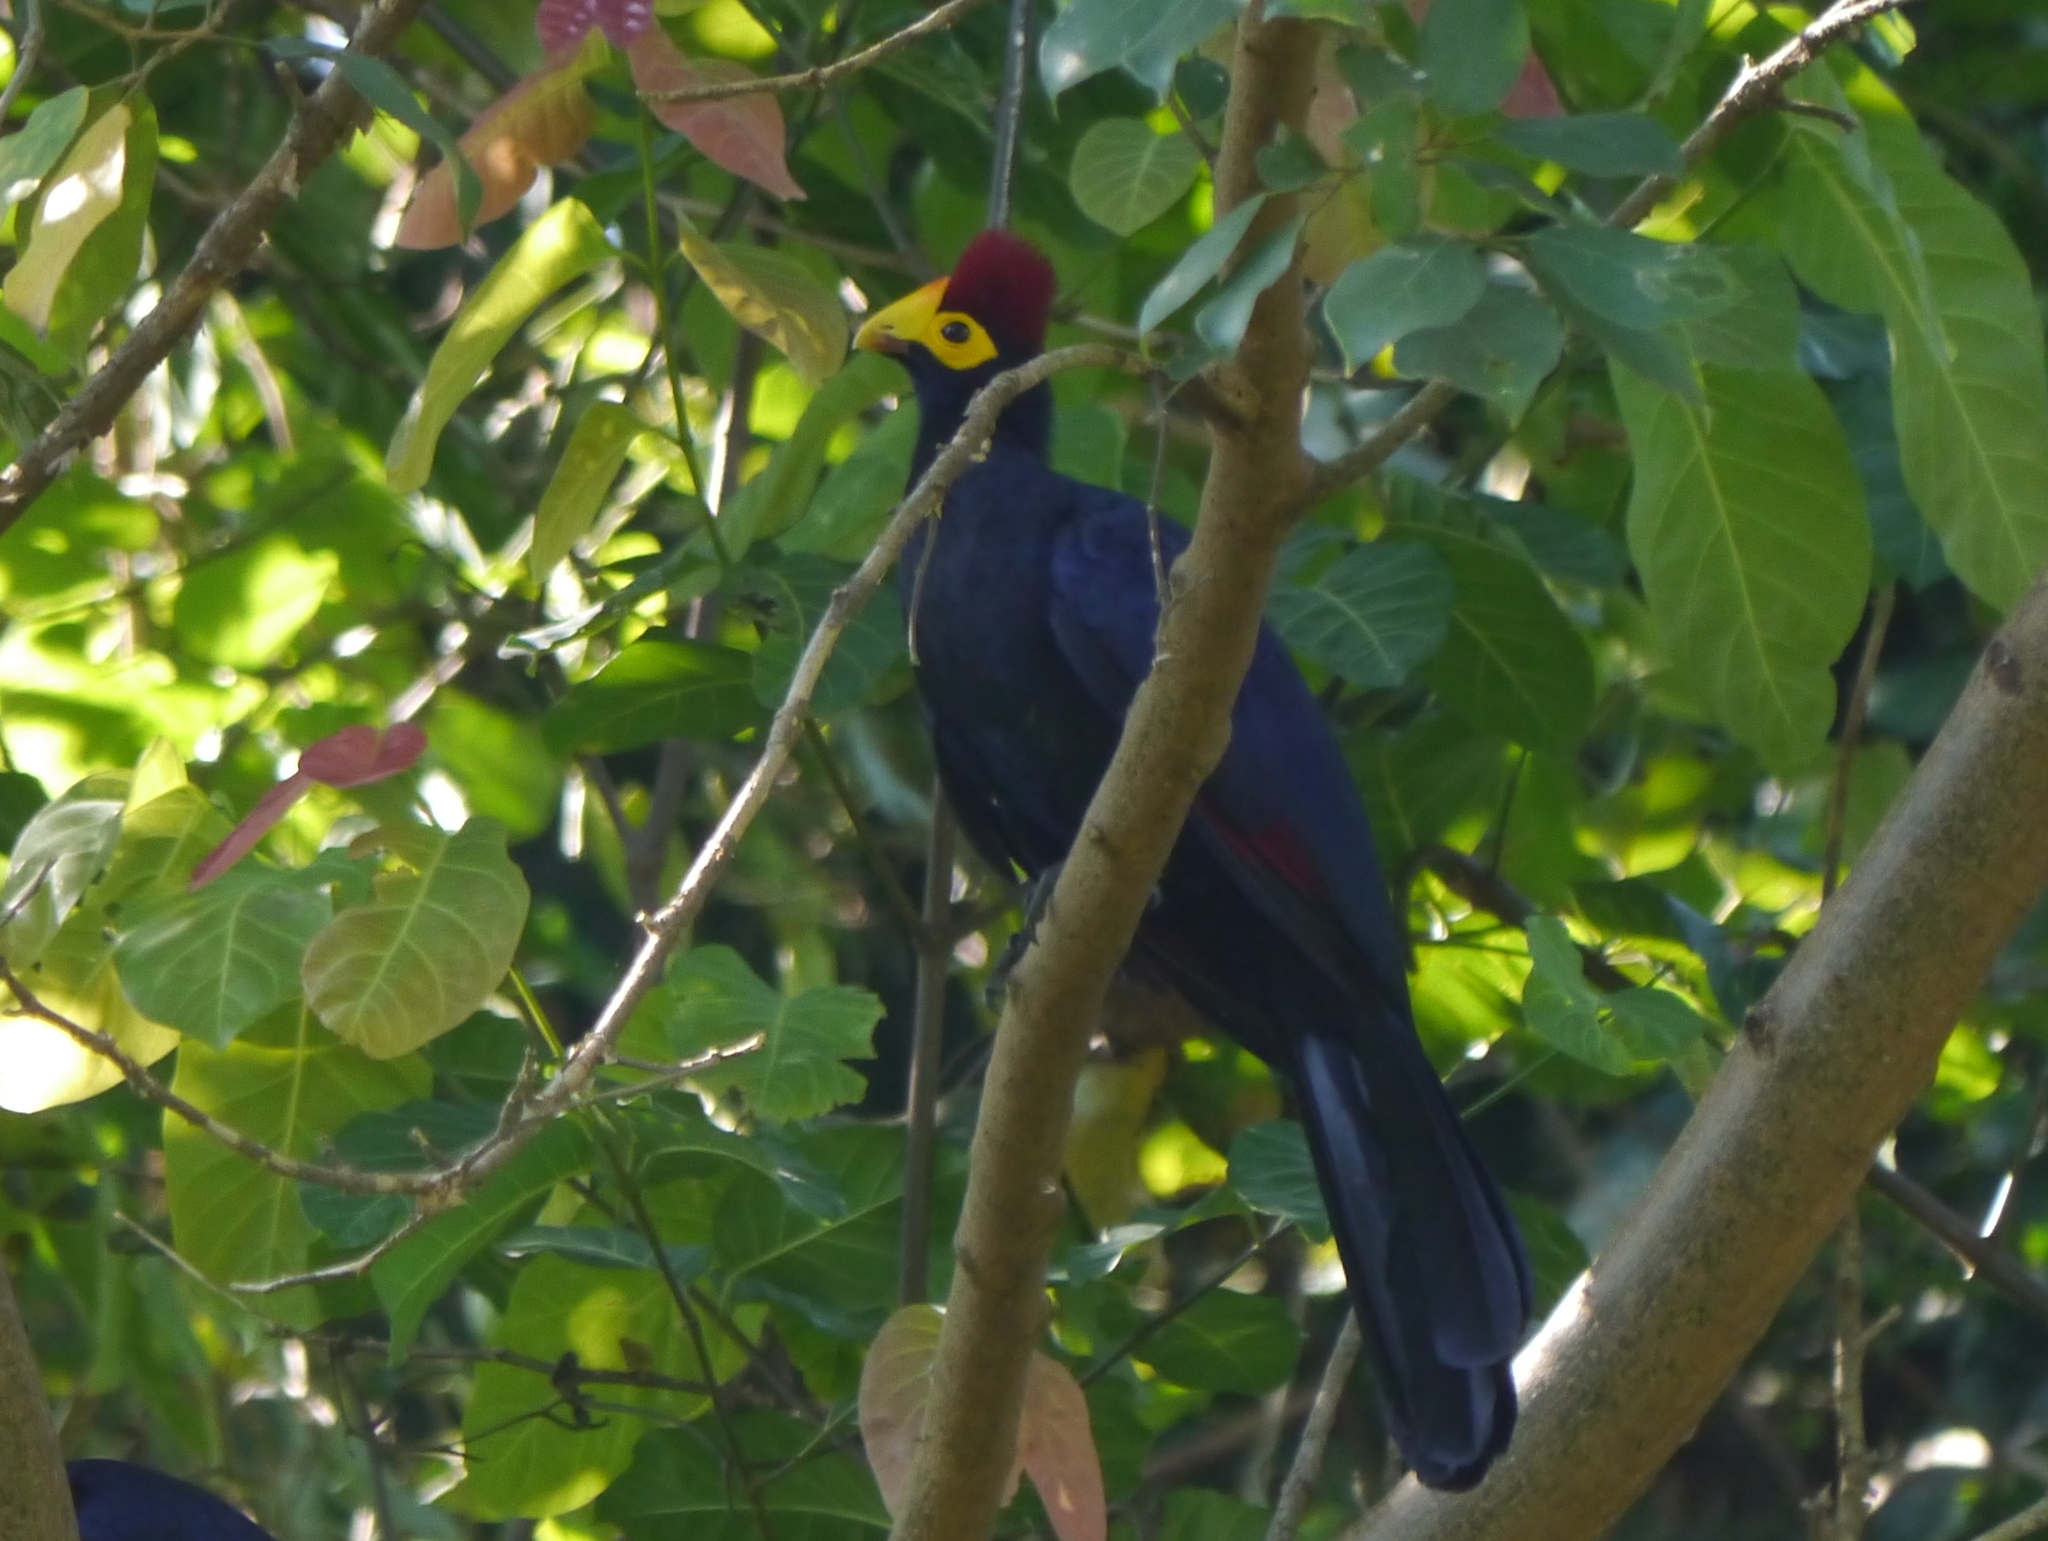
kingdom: Animalia
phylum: Chordata
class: Aves
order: Musophagiformes
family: Musophagidae
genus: Musophaga
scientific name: Musophaga rossae
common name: Ross's turaco
